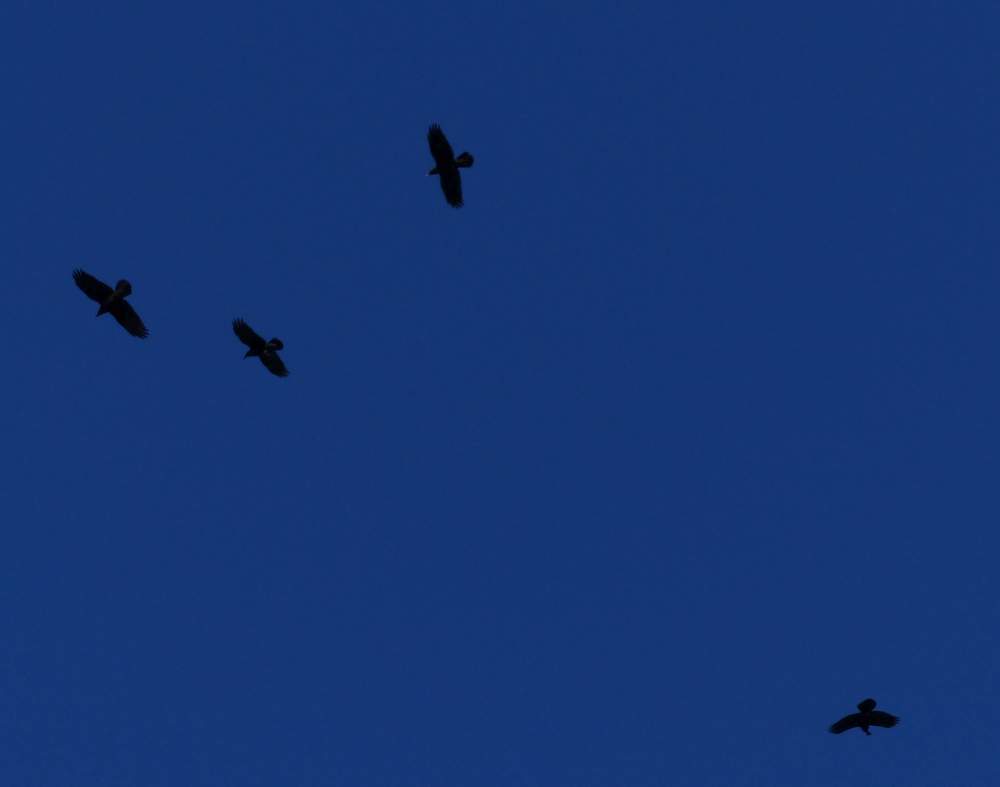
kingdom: Animalia
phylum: Chordata
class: Aves
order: Passeriformes
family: Corvidae
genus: Corvus
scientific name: Corvus corax
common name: Common raven
